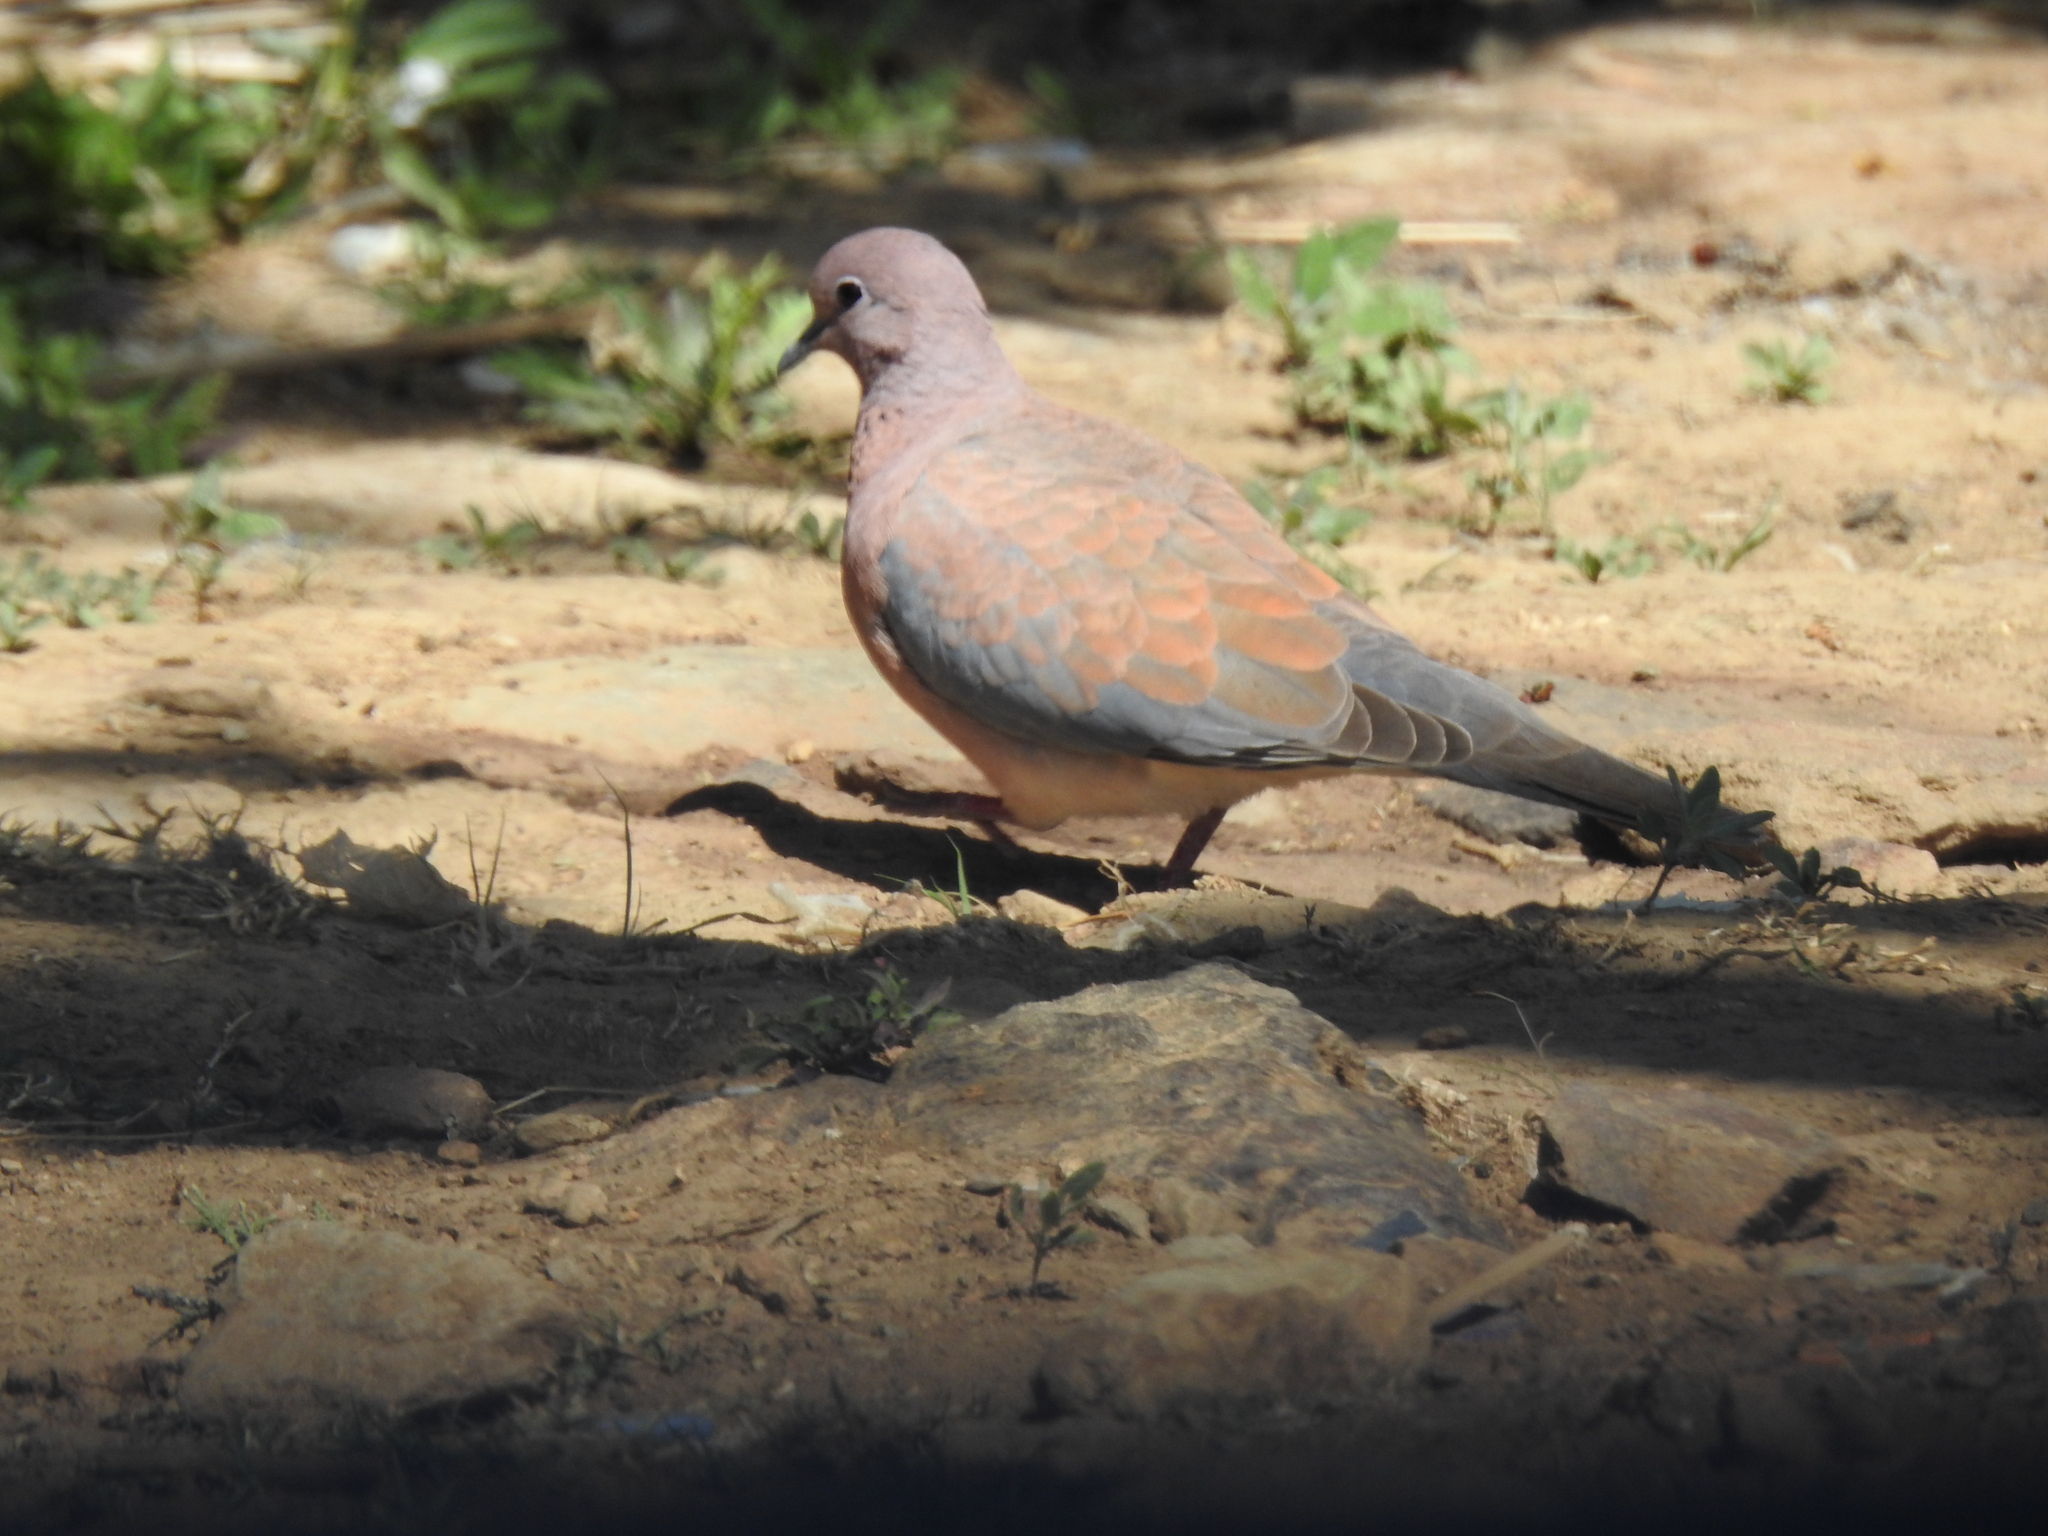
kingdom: Animalia
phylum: Chordata
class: Aves
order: Columbiformes
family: Columbidae
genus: Spilopelia
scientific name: Spilopelia senegalensis
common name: Laughing dove
